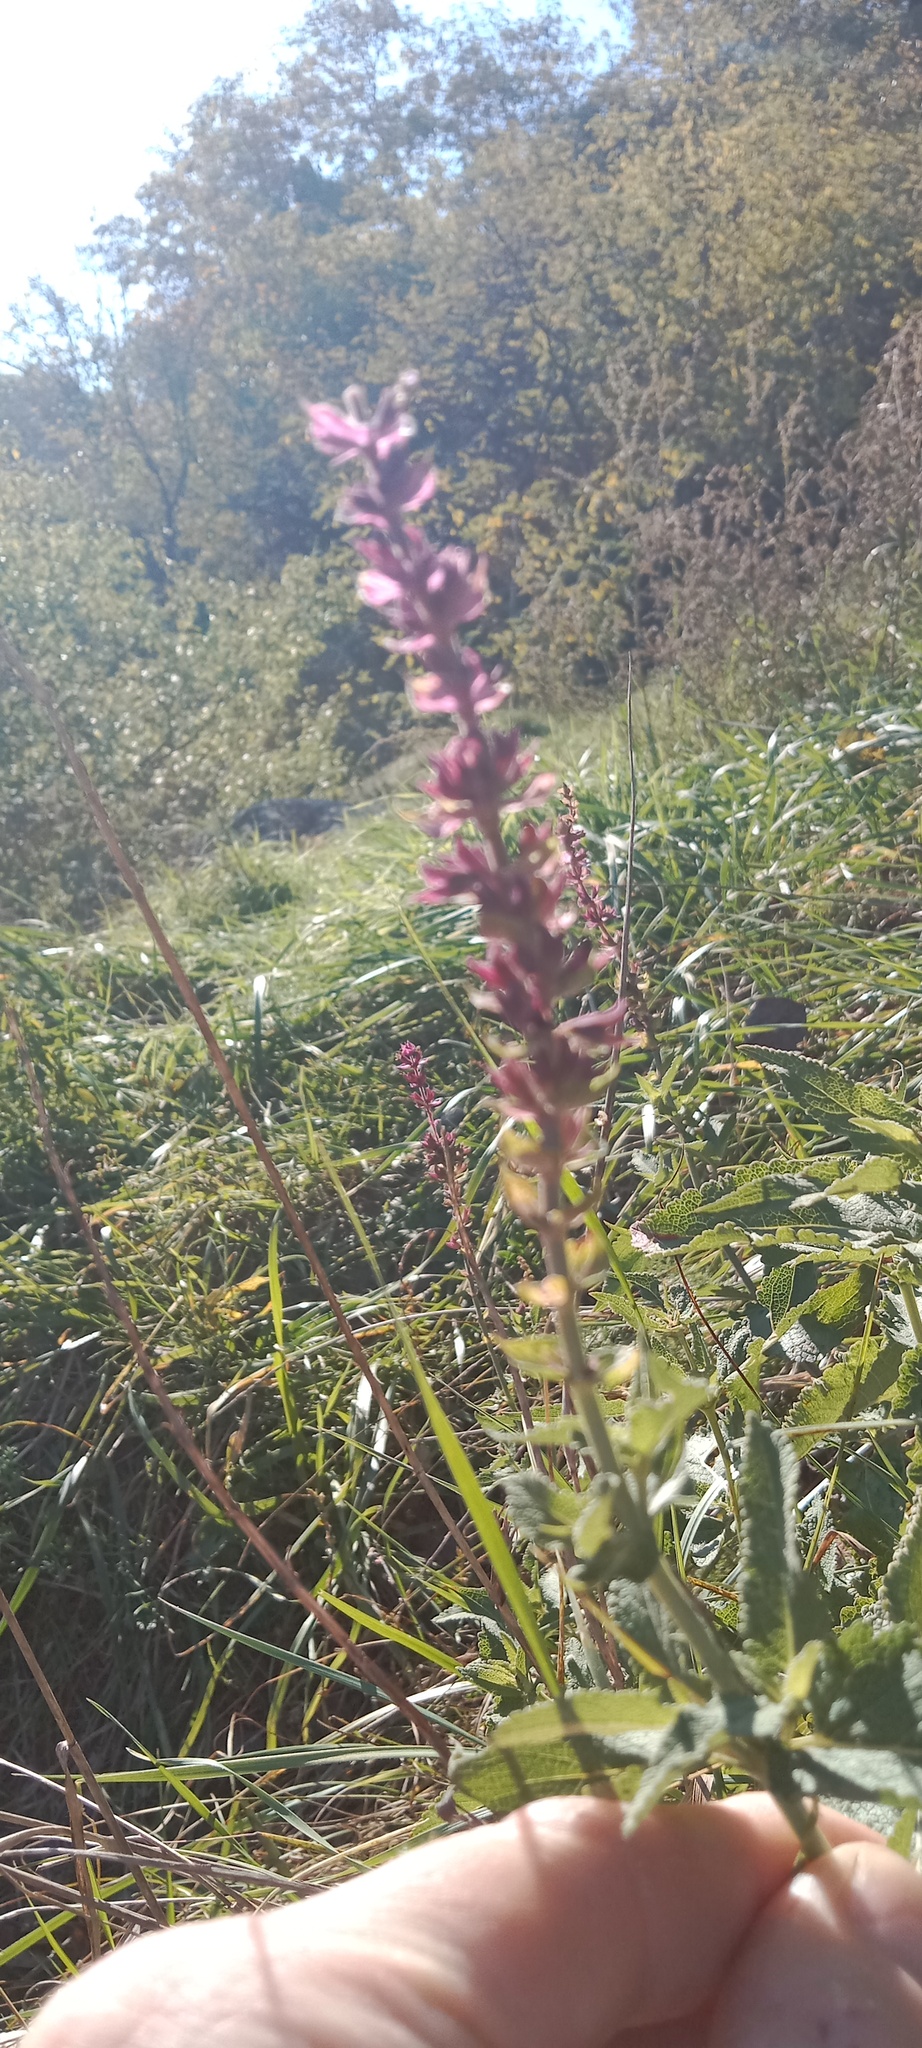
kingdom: Plantae
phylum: Tracheophyta
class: Magnoliopsida
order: Lamiales
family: Lamiaceae
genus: Salvia
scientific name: Salvia nemorosa
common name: Balkan clary
